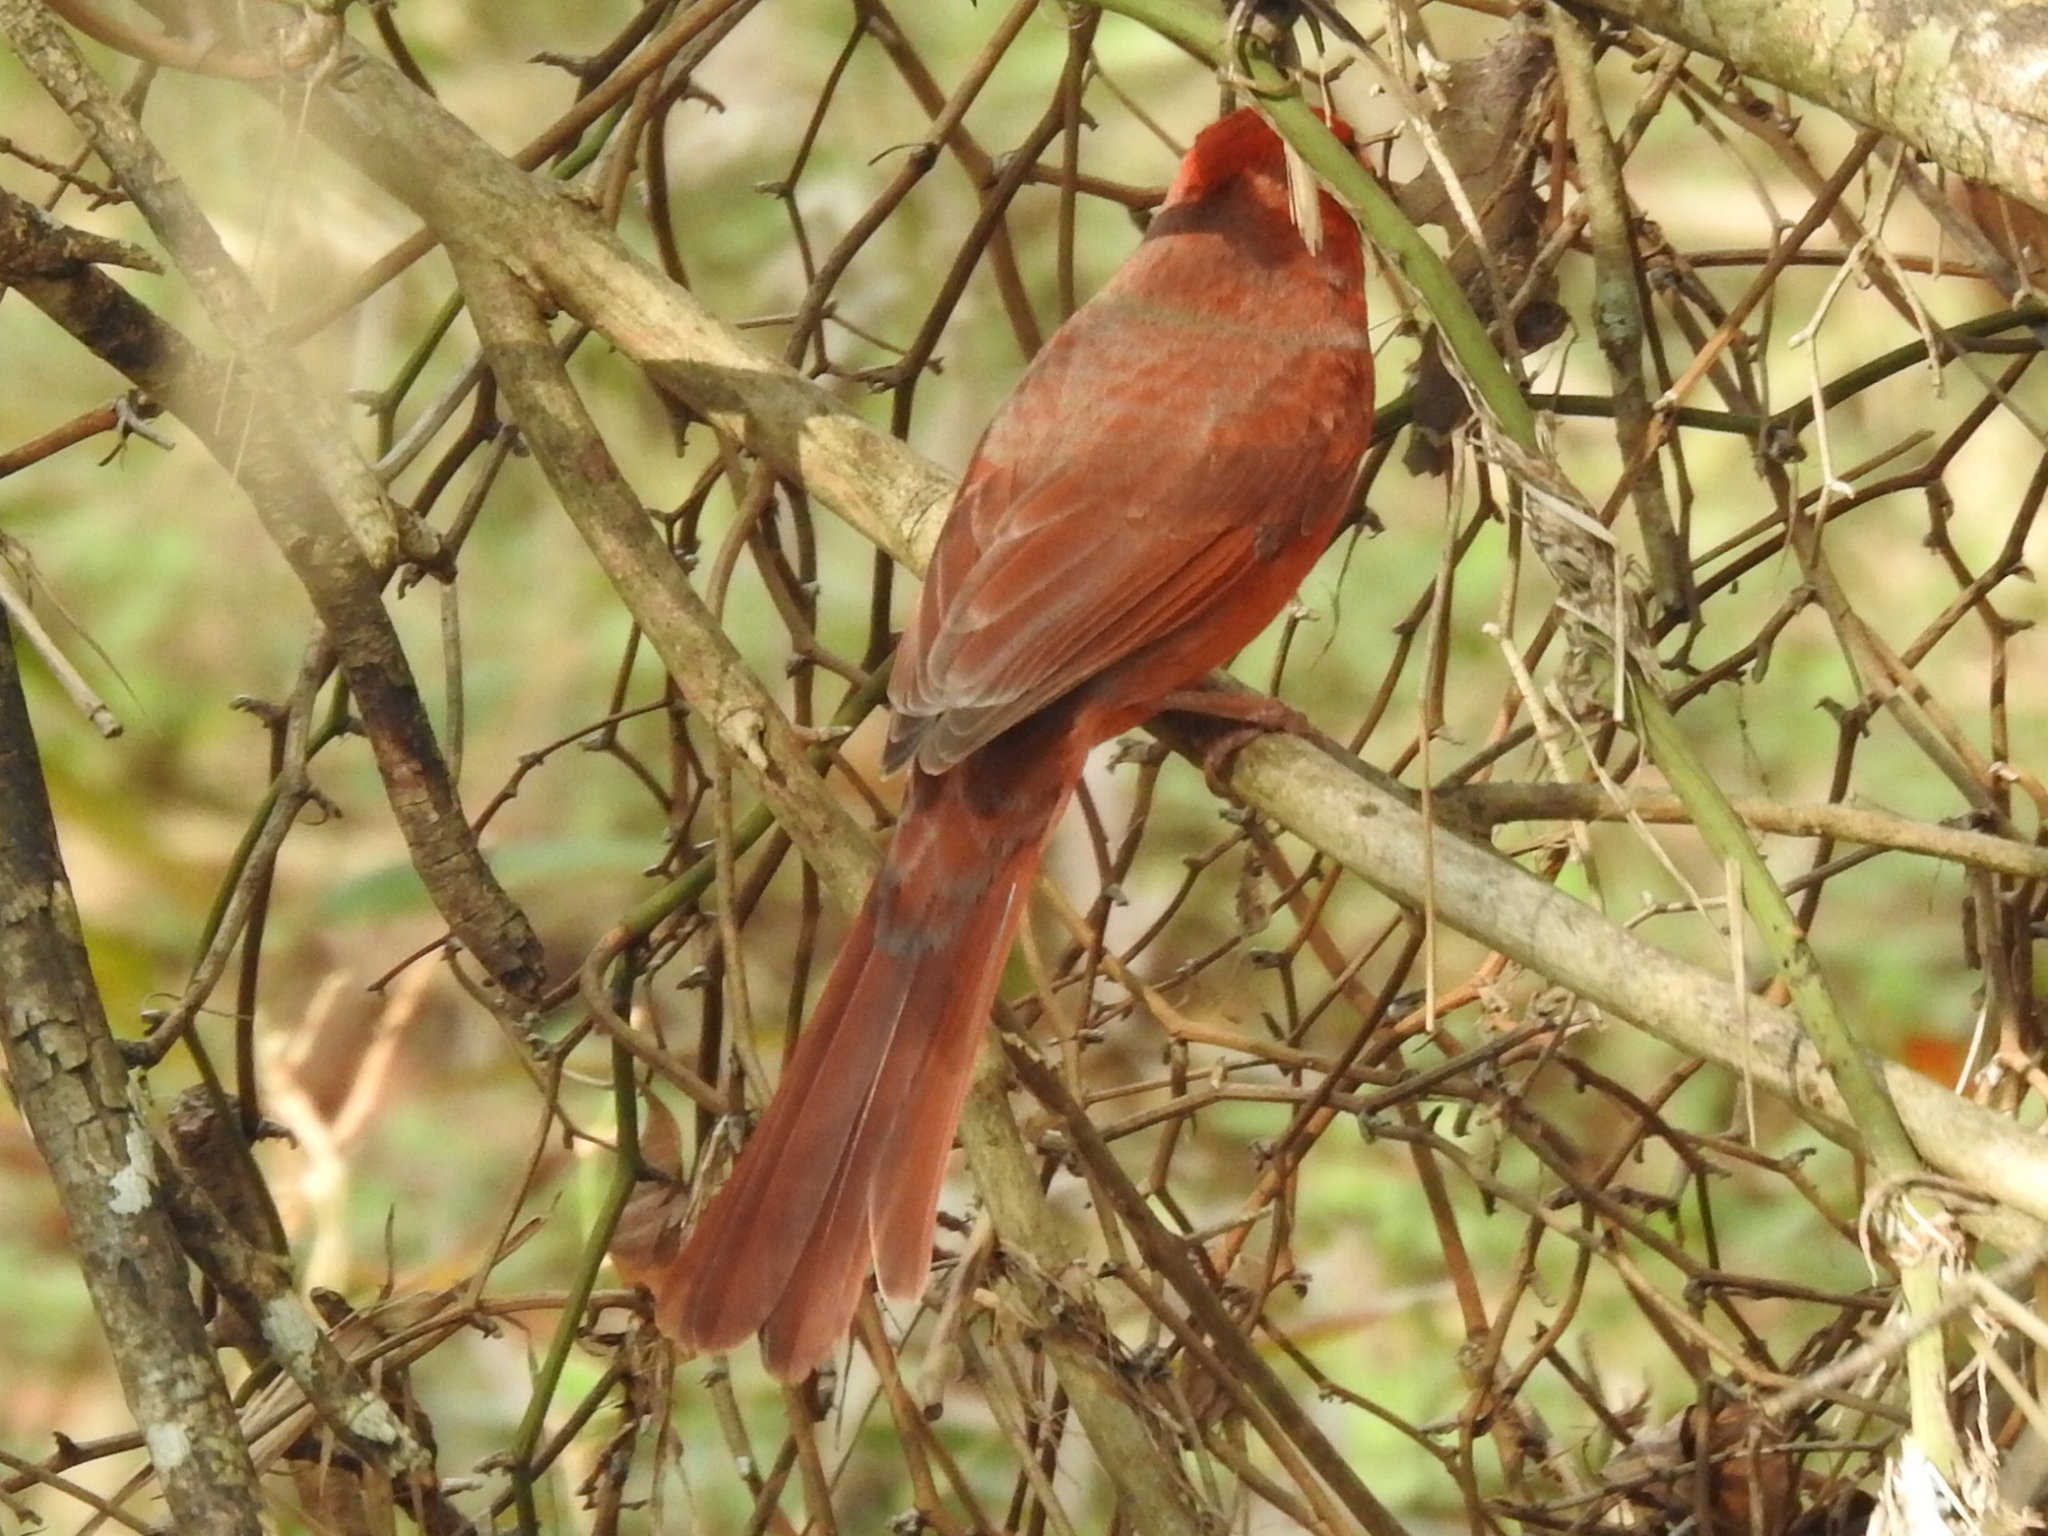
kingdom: Animalia
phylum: Chordata
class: Aves
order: Passeriformes
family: Cardinalidae
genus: Cardinalis
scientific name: Cardinalis cardinalis
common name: Northern cardinal
